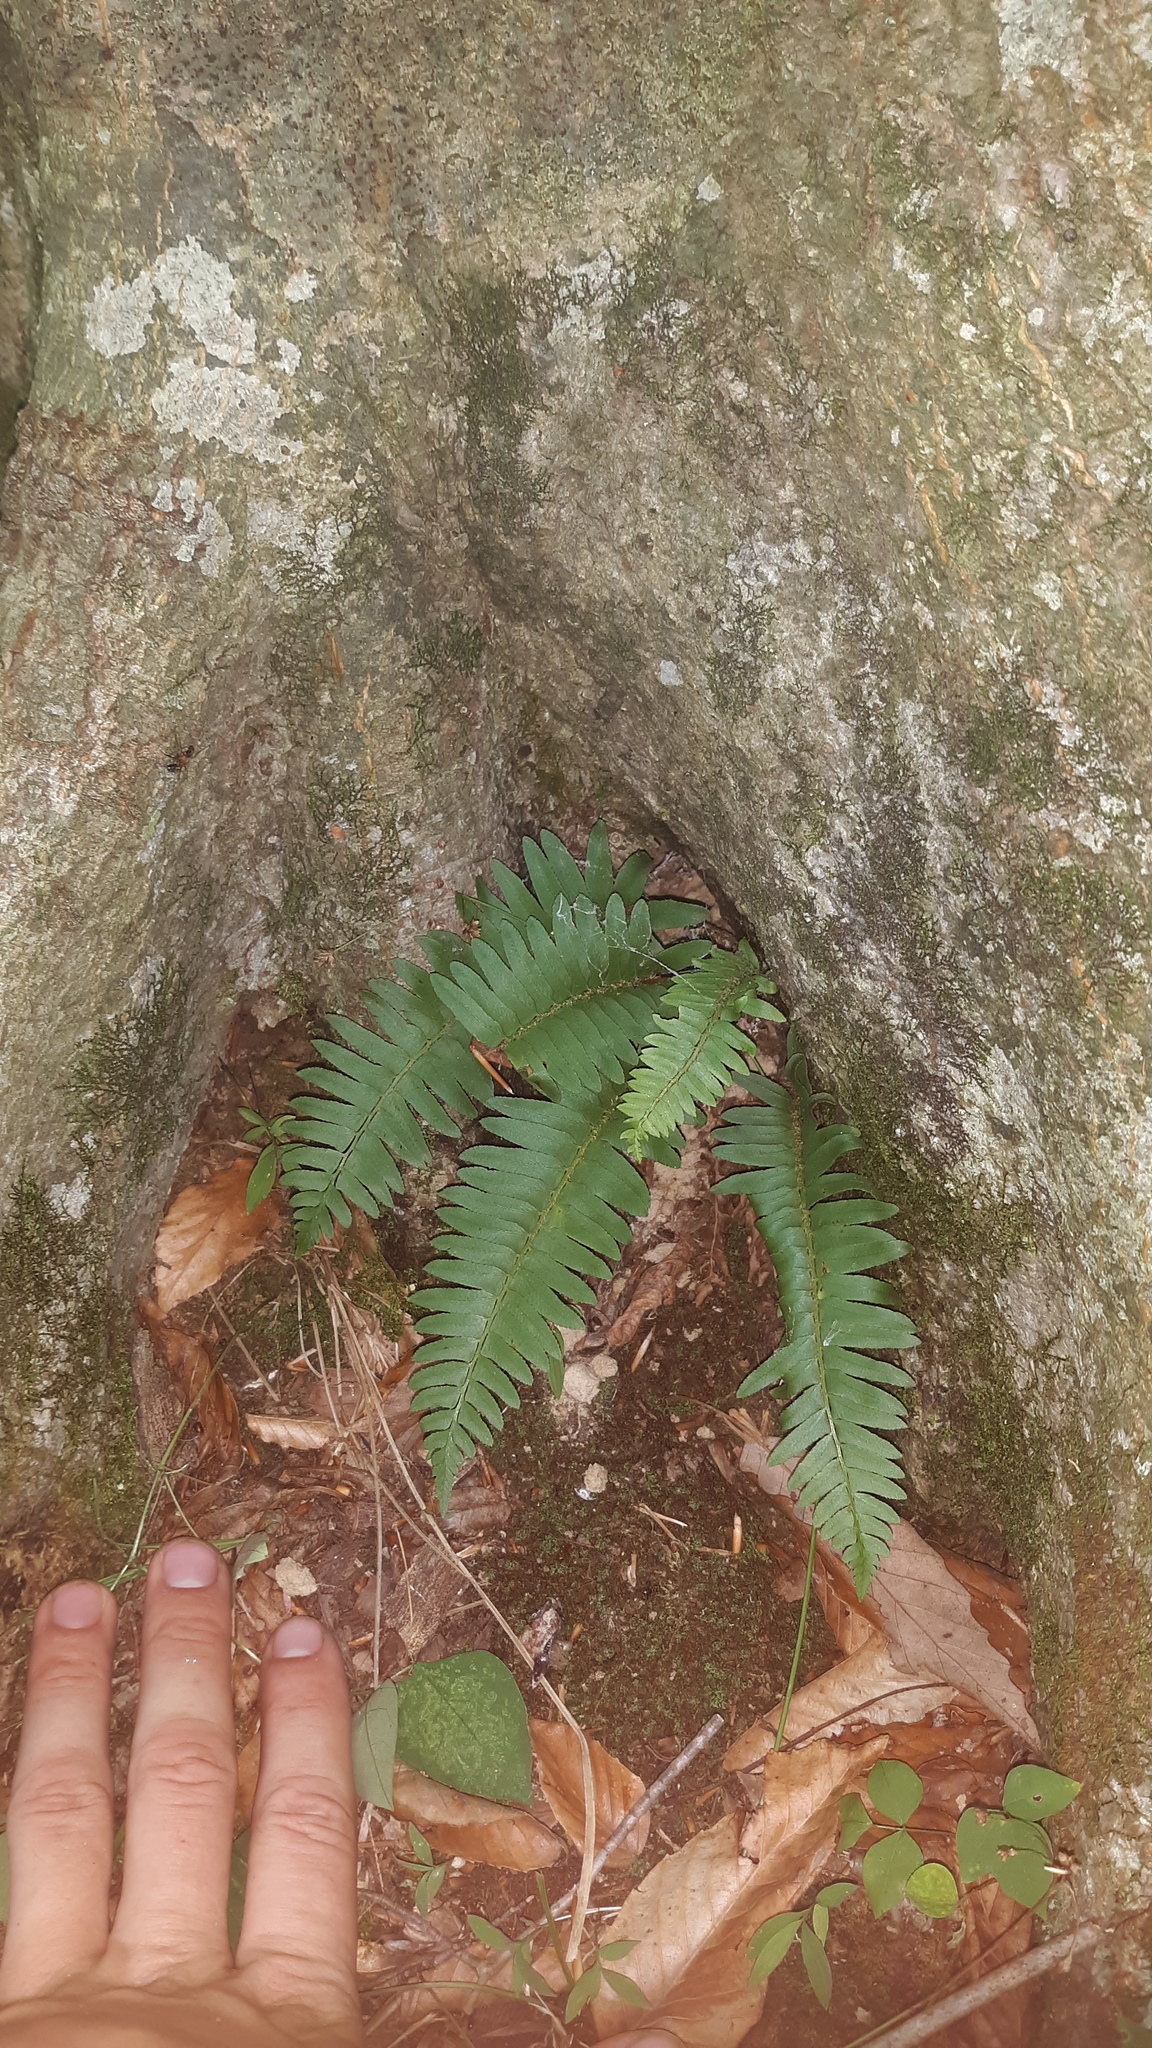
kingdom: Plantae
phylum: Tracheophyta
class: Polypodiopsida
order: Polypodiales
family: Dryopteridaceae
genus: Polystichum
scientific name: Polystichum acrostichoides
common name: Christmas fern
